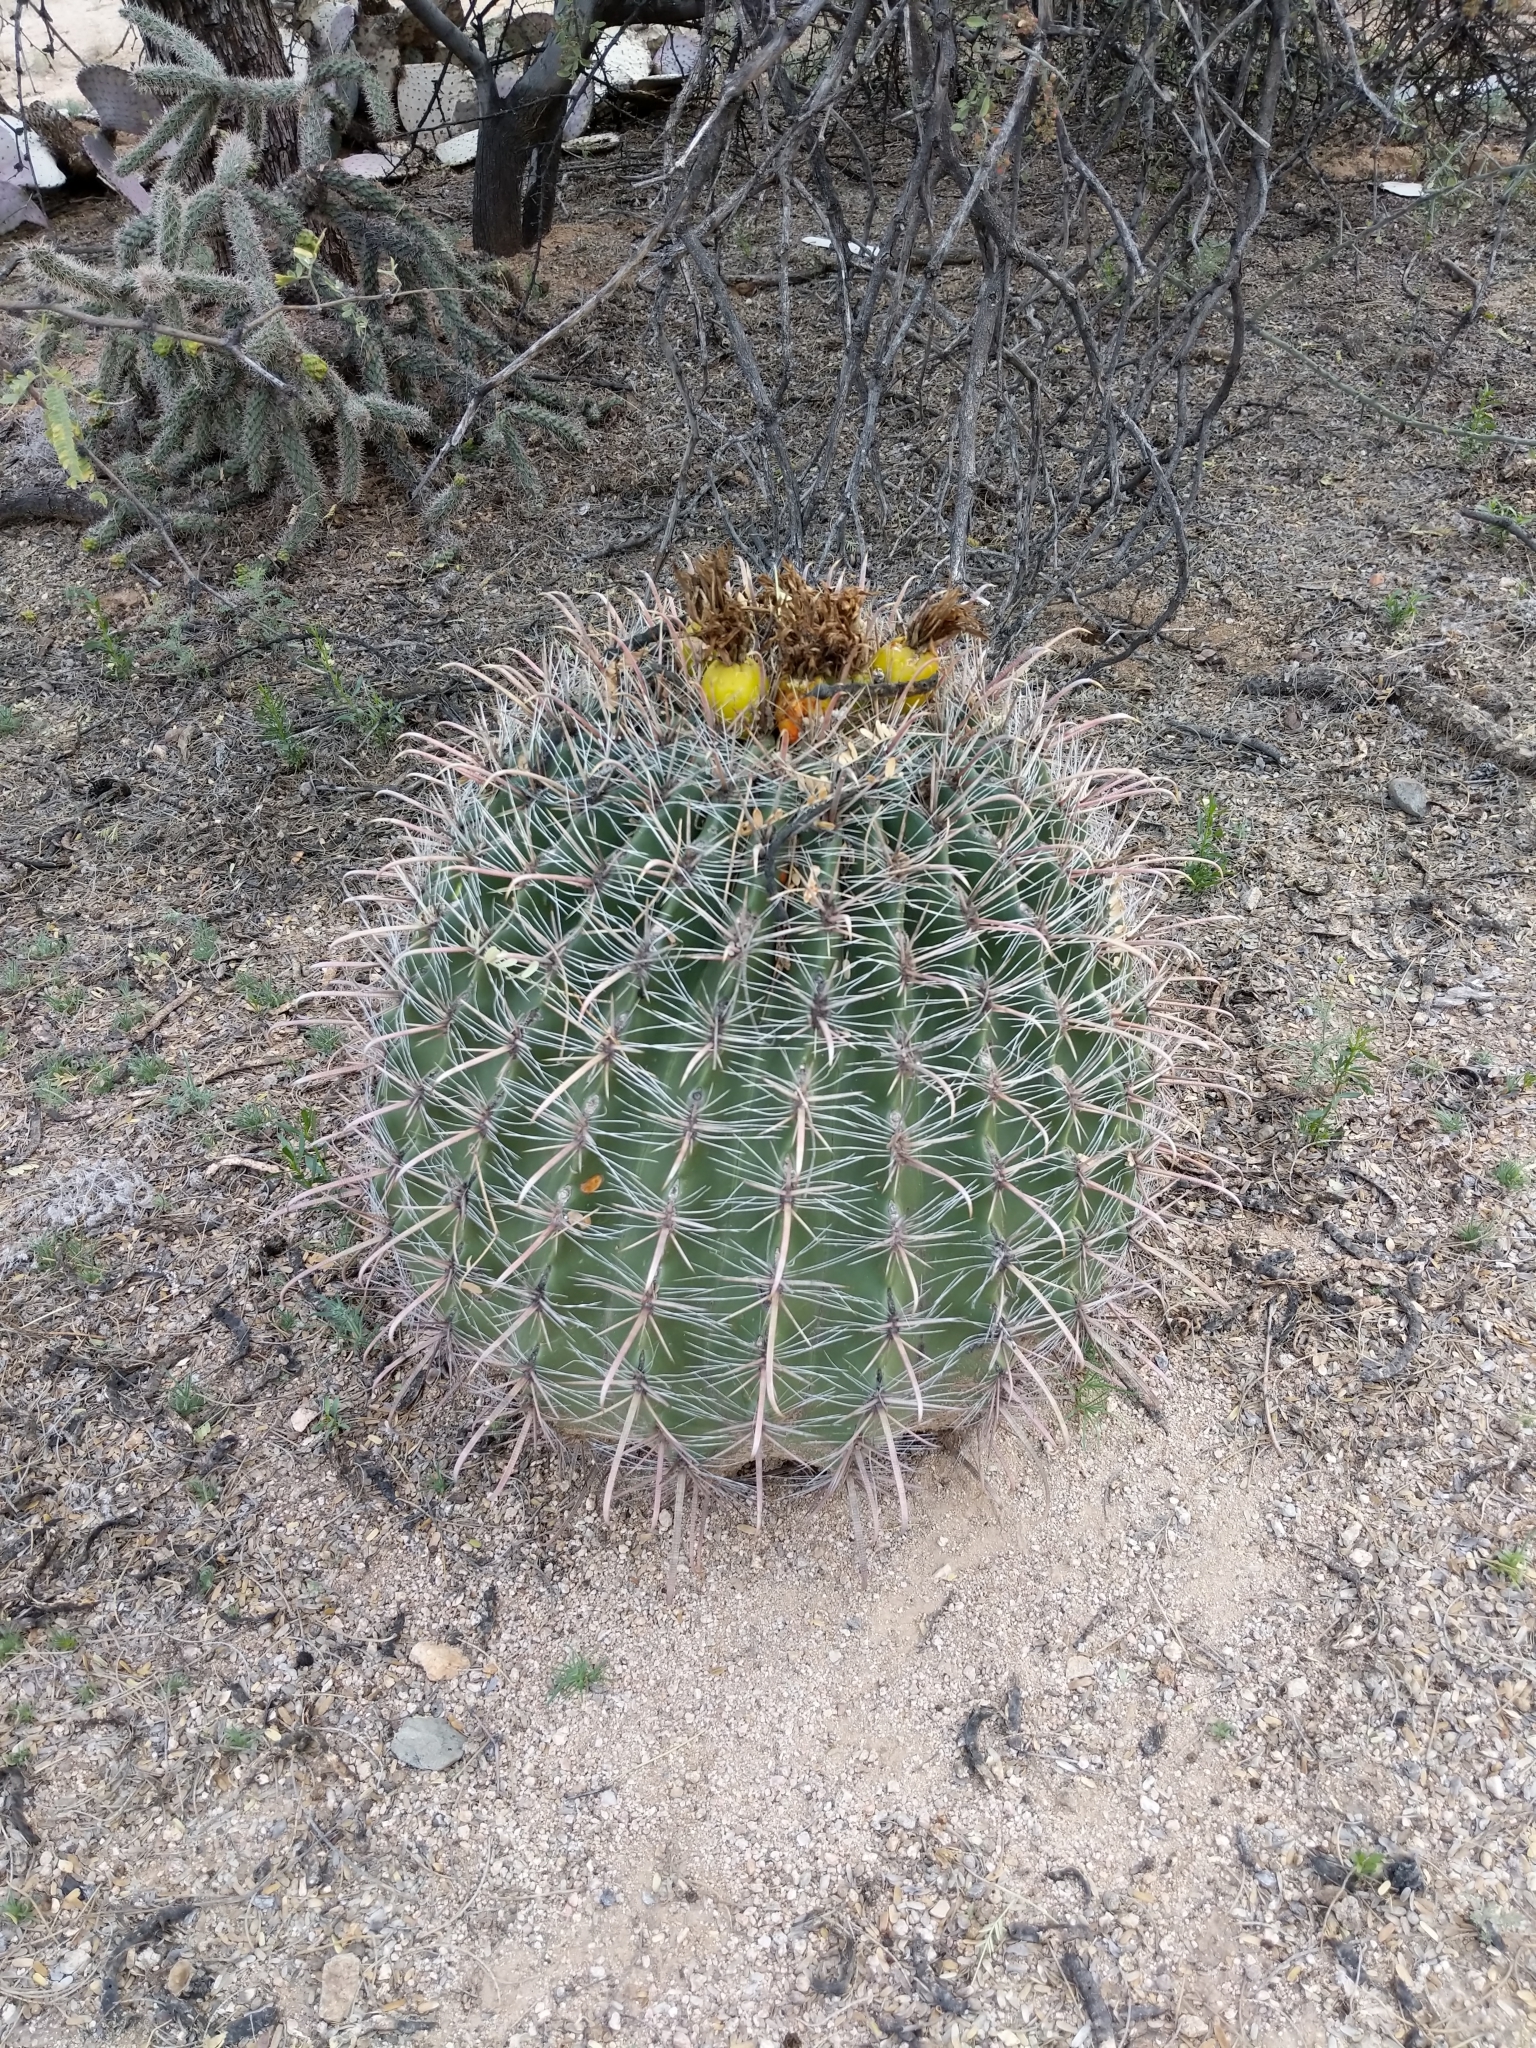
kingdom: Plantae
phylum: Tracheophyta
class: Magnoliopsida
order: Caryophyllales
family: Cactaceae
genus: Ferocactus
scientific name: Ferocactus wislizeni
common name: Candy barrel cactus
